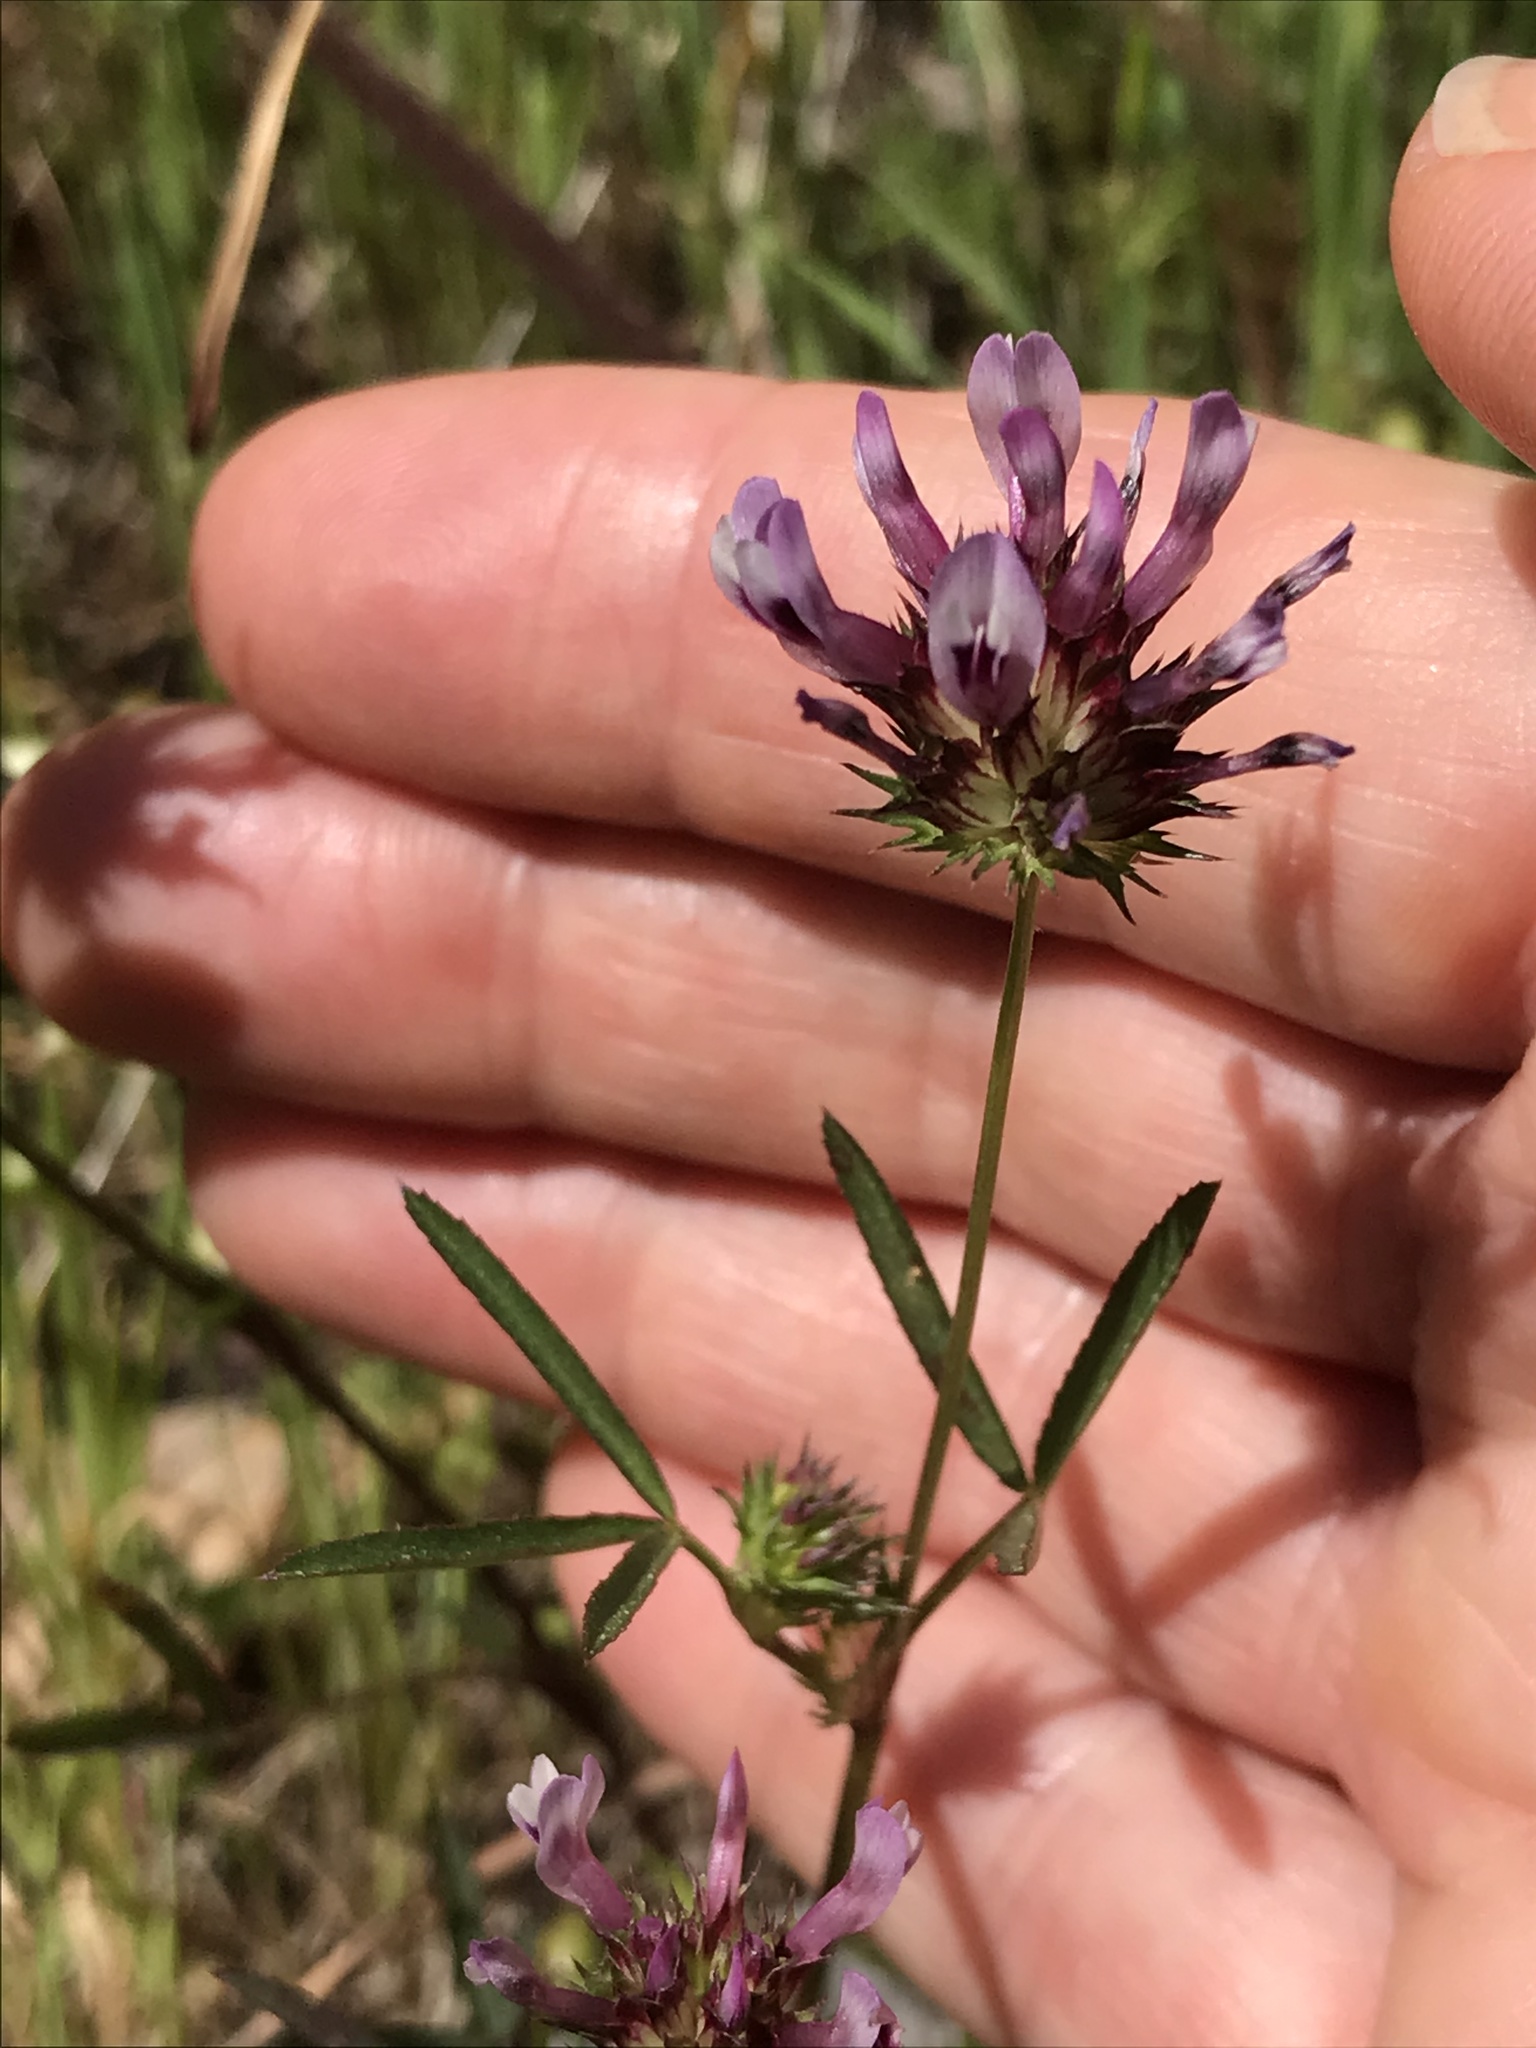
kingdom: Plantae
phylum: Tracheophyta
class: Magnoliopsida
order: Fabales
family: Fabaceae
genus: Trifolium
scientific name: Trifolium willdenovii
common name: Tomcat clover
